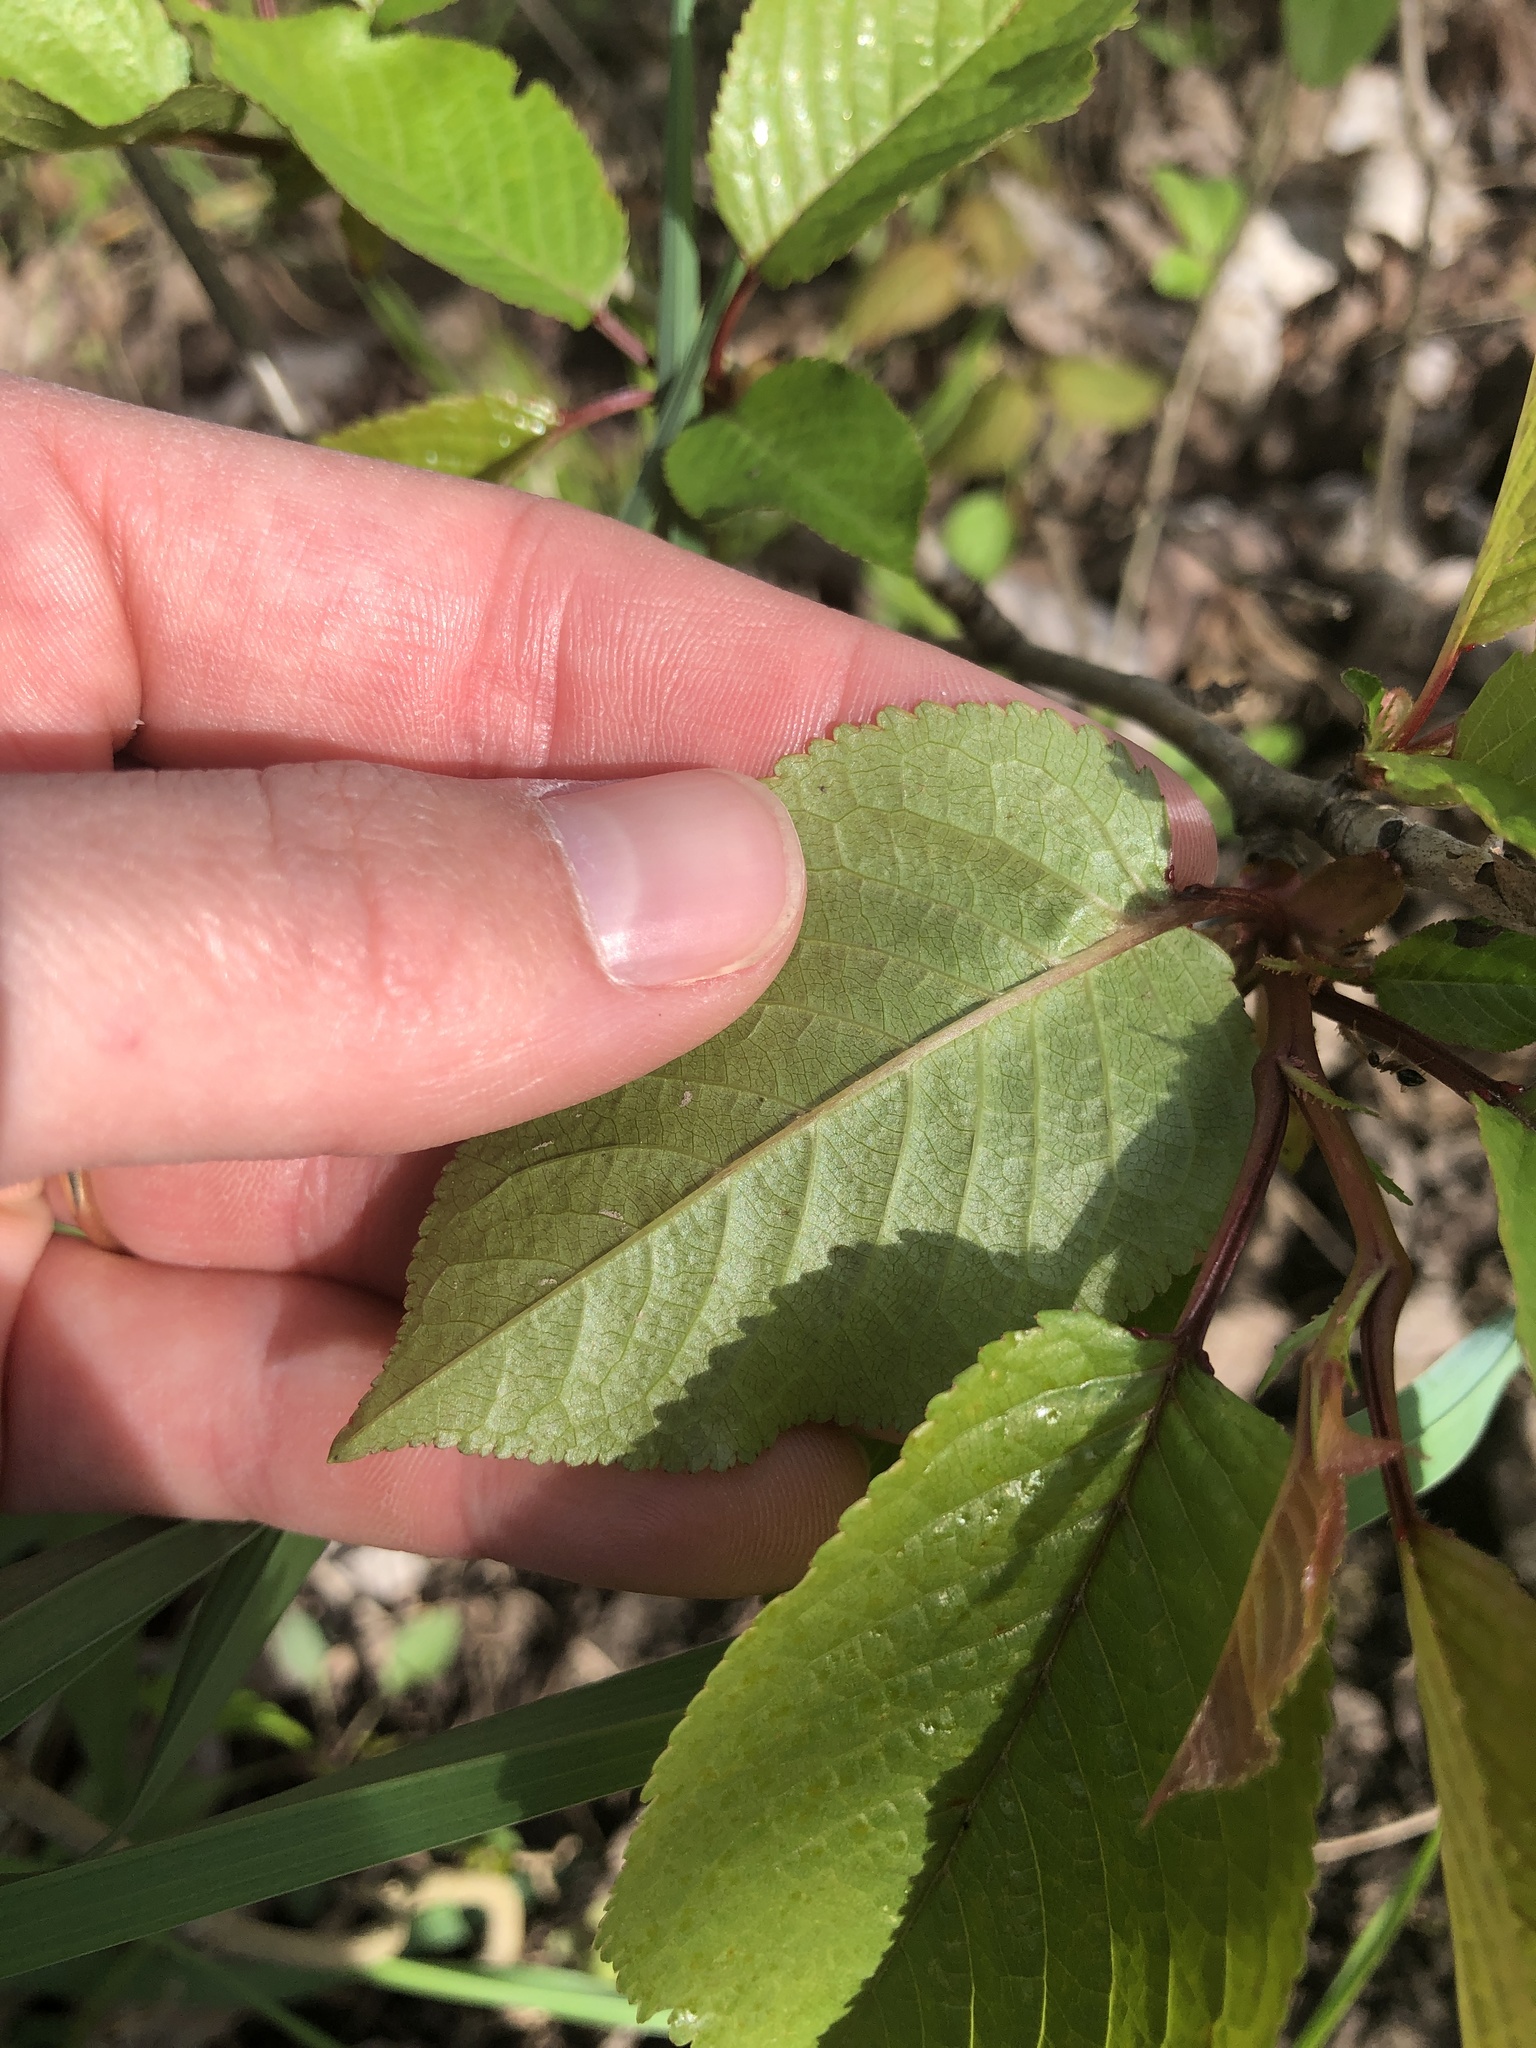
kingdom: Plantae
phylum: Tracheophyta
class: Magnoliopsida
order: Rosales
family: Rosaceae
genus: Prunus
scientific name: Prunus avium
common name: Sweet cherry
